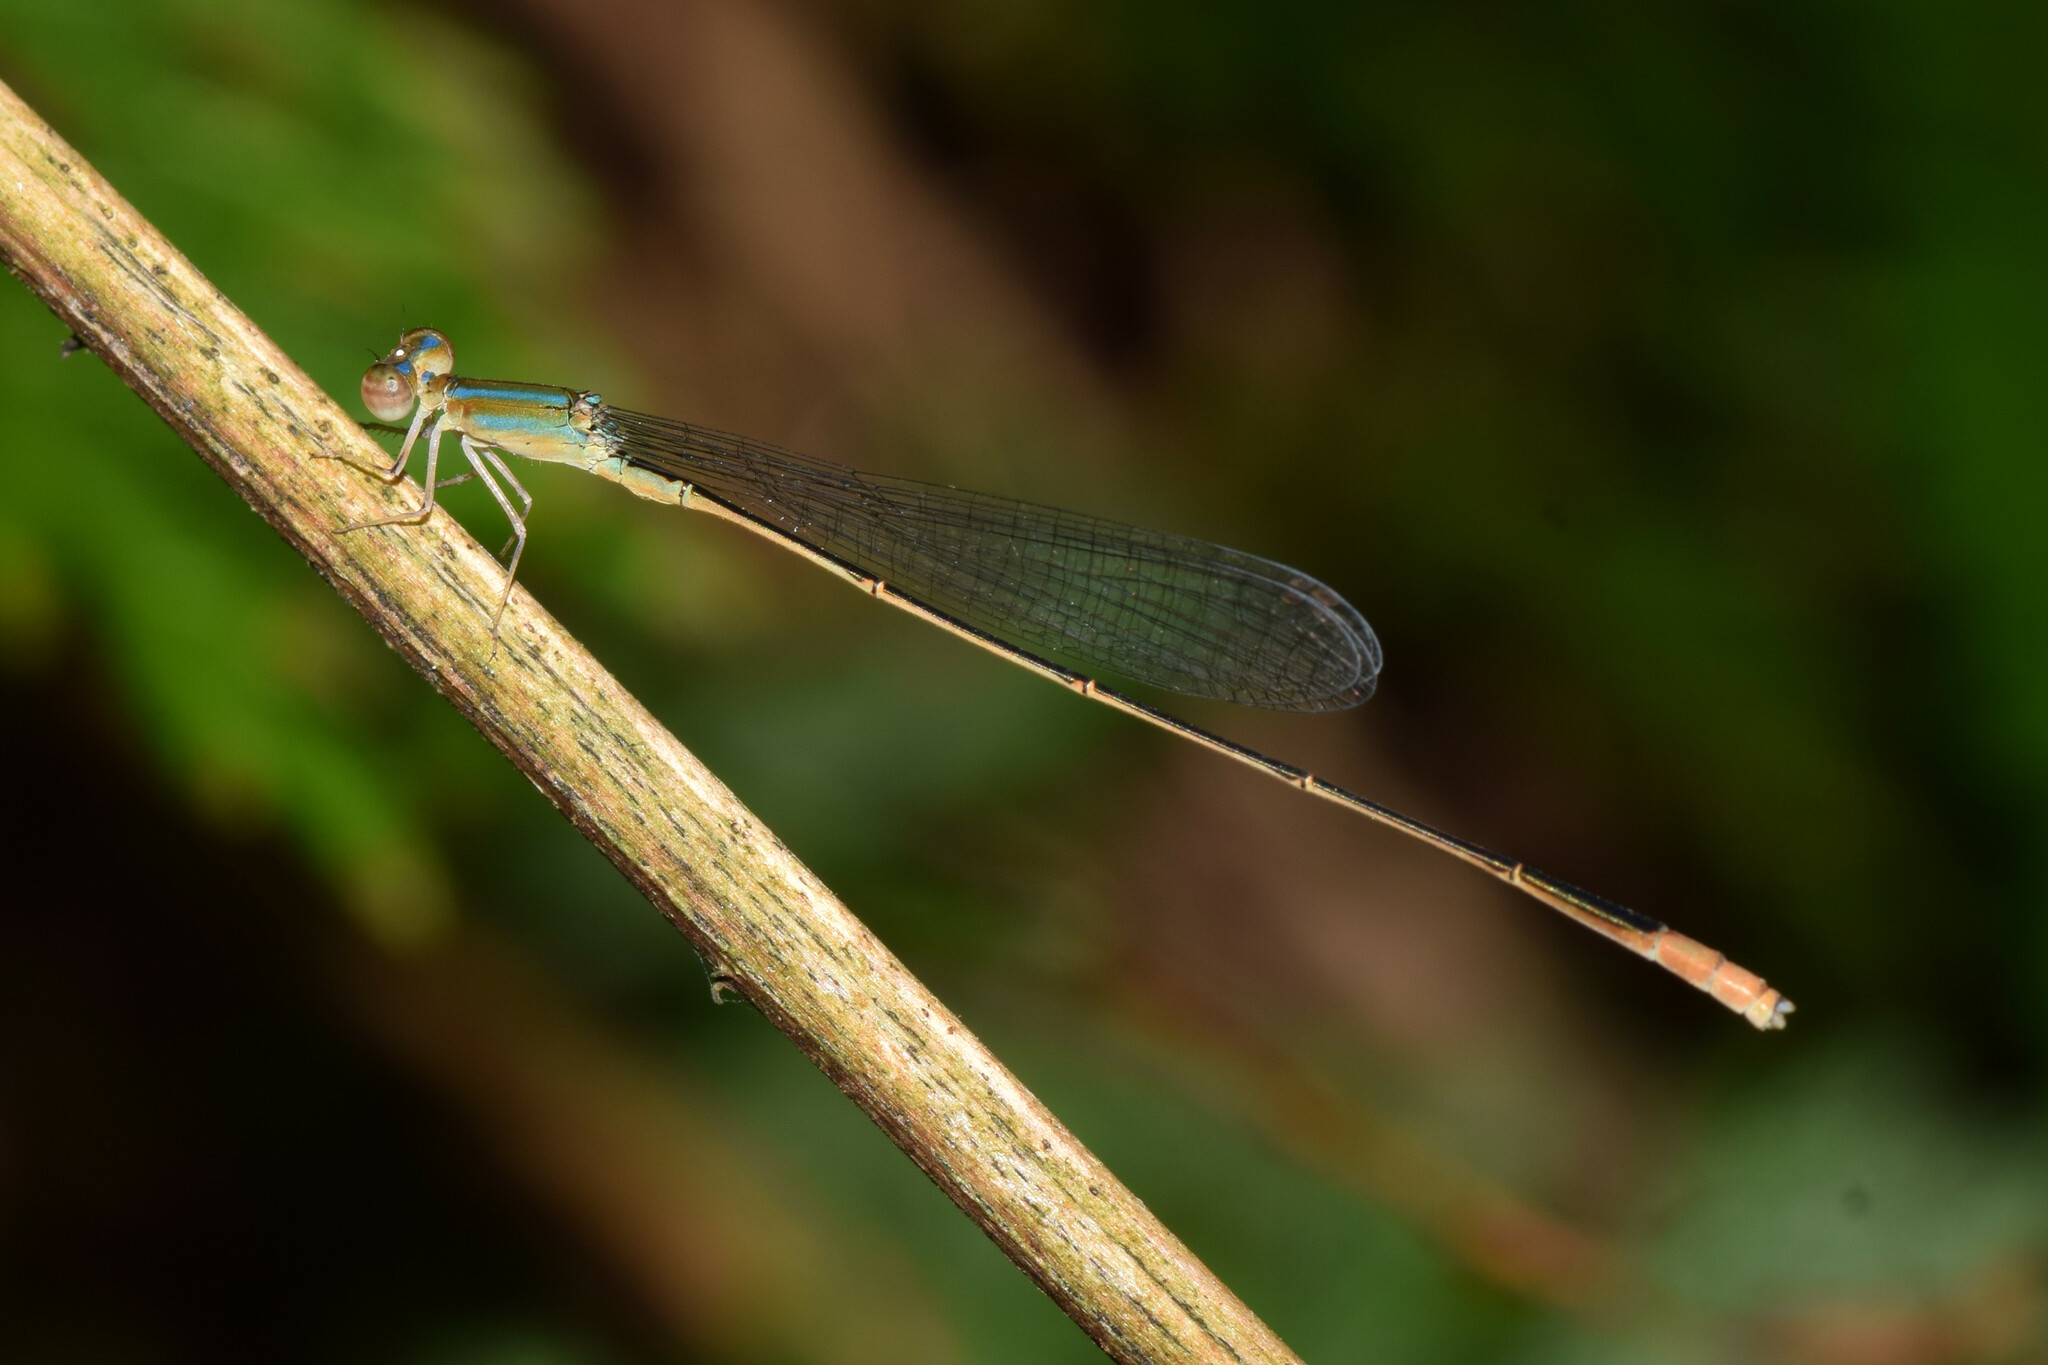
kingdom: Animalia
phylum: Arthropoda
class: Insecta
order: Odonata
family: Coenagrionidae
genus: Aciagrion
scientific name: Aciagrion pallidum
